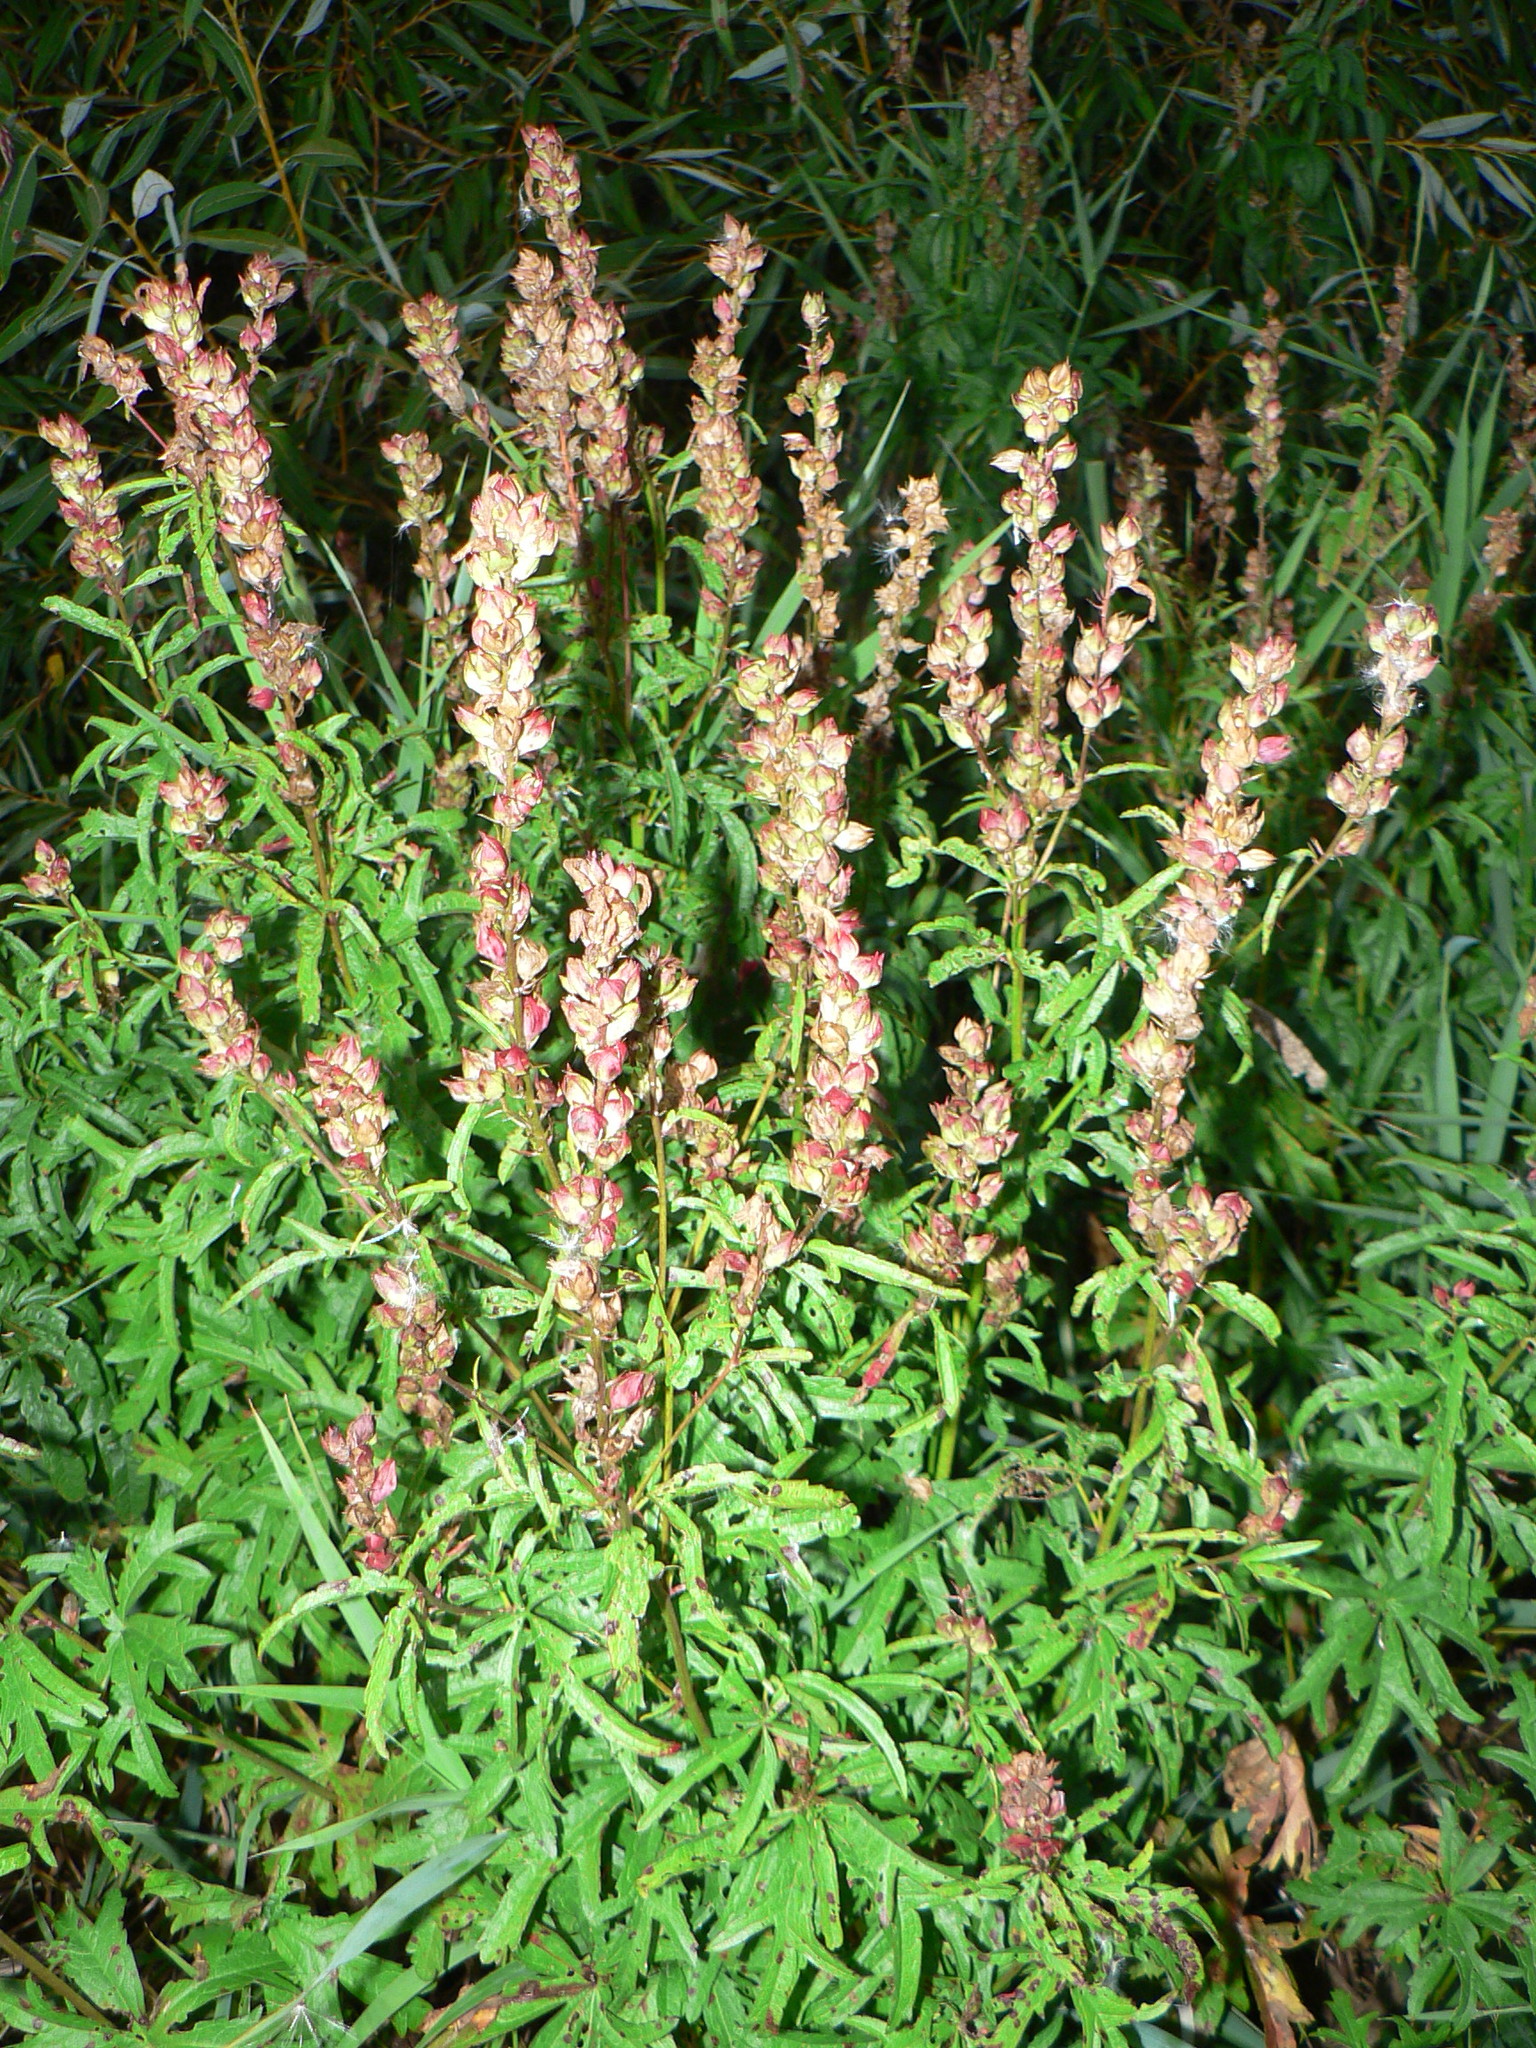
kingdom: Plantae
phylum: Tracheophyta
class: Magnoliopsida
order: Malvales
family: Malvaceae
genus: Sidalcea
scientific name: Sidalcea hendersonii
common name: Mallow
